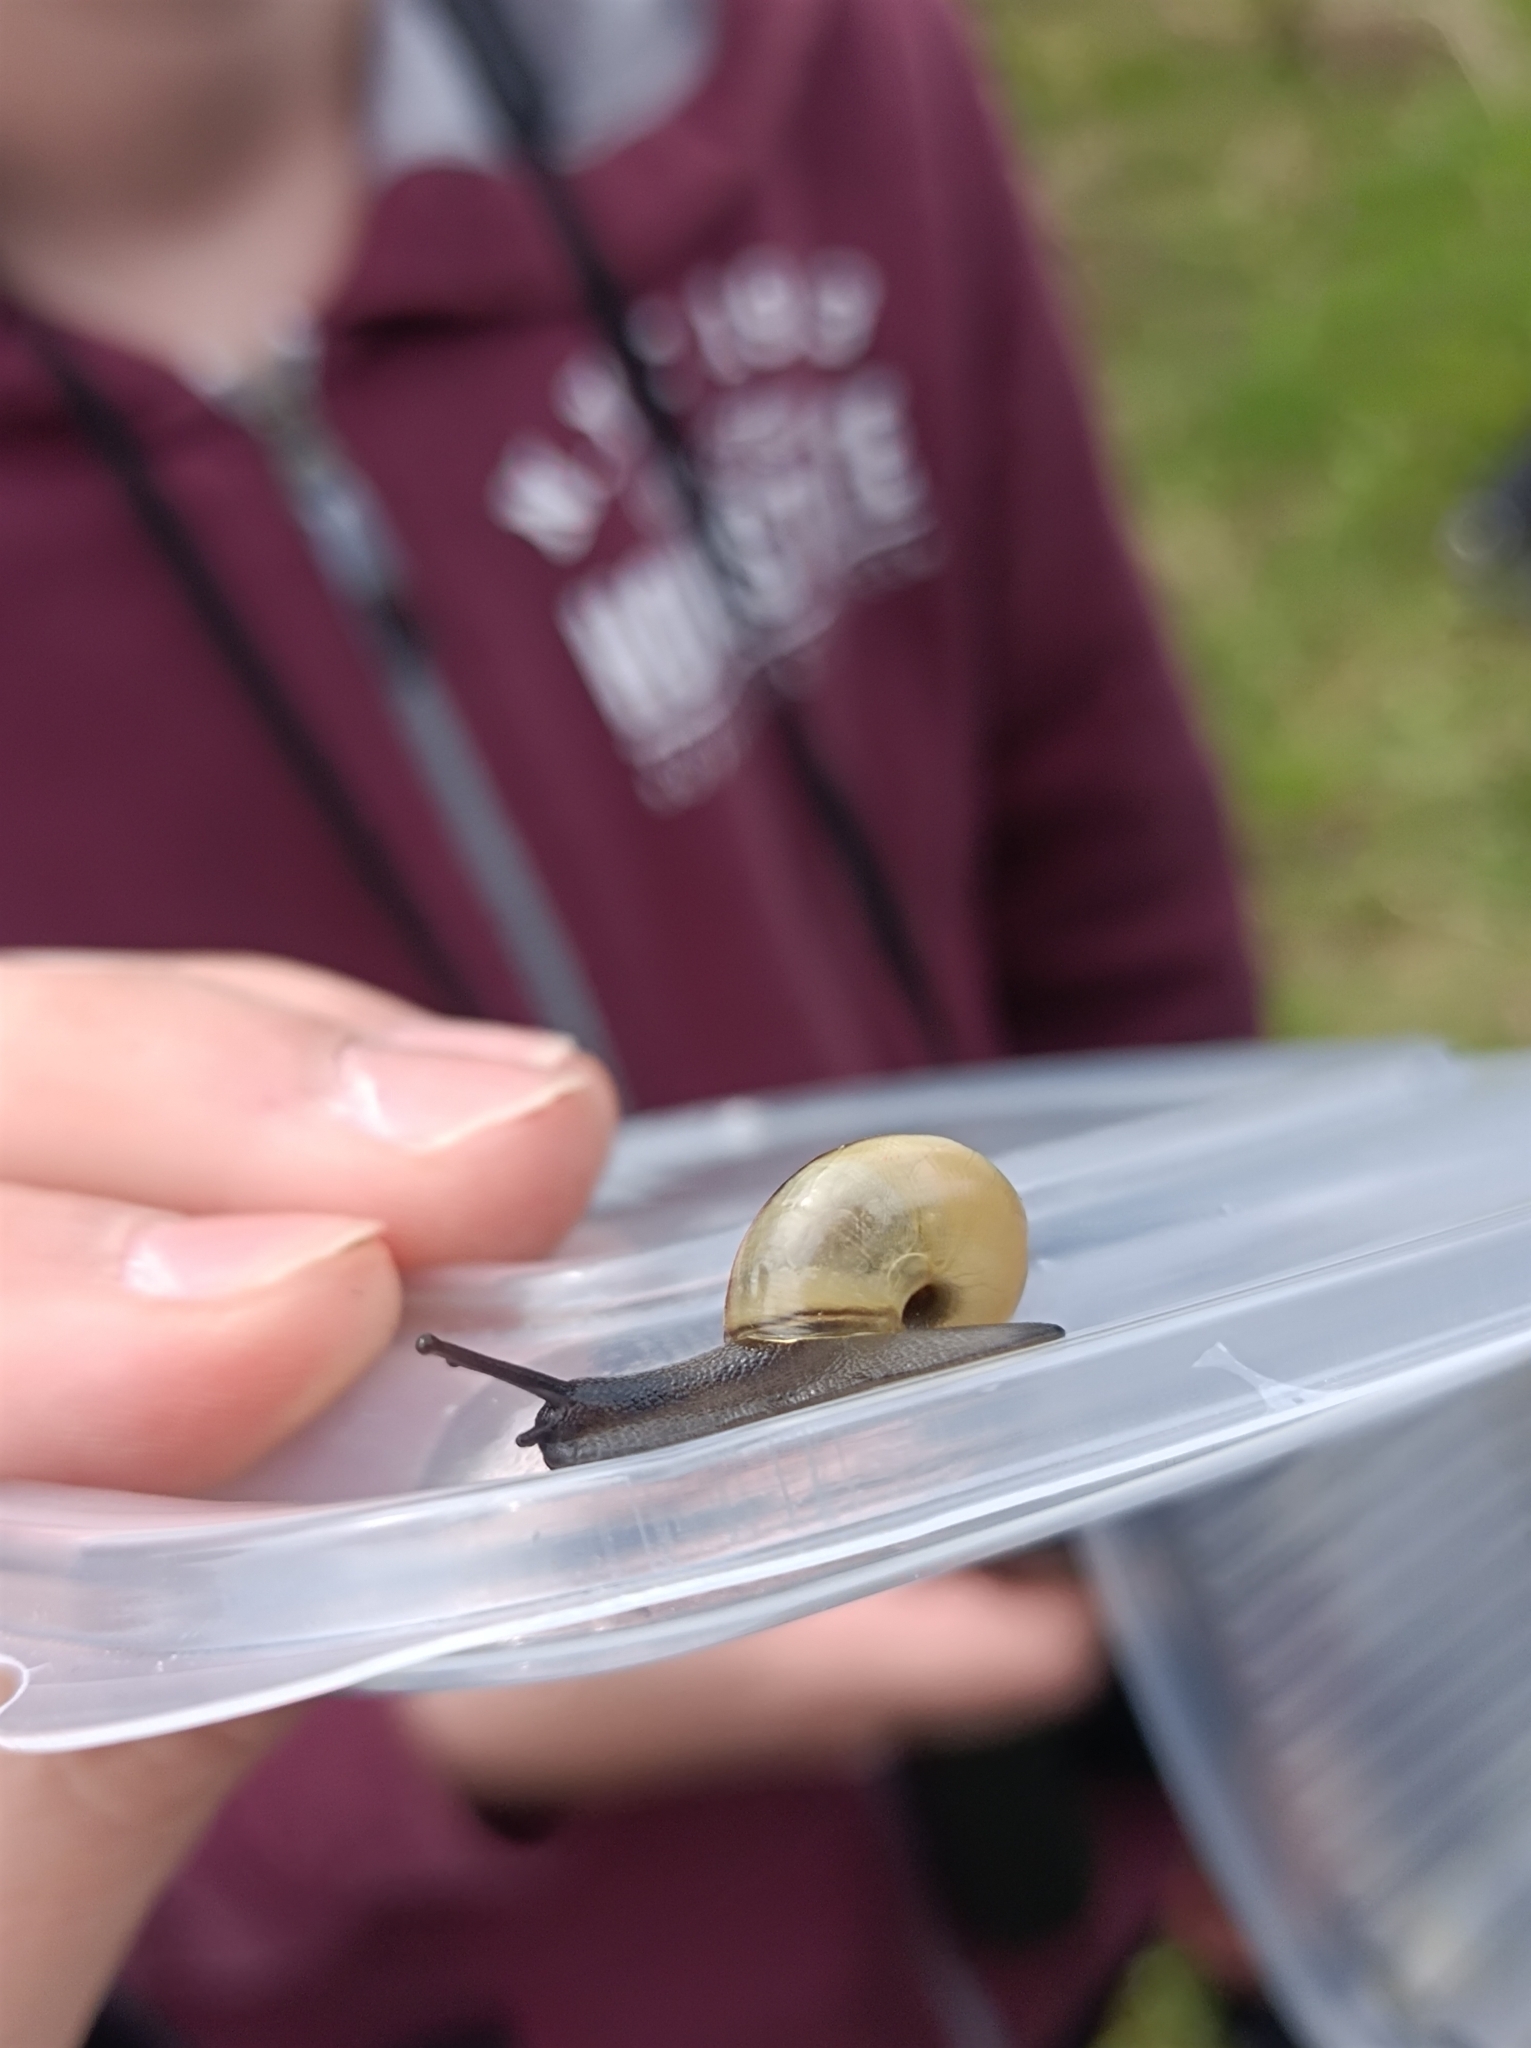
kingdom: Animalia
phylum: Mollusca
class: Gastropoda
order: Stylommatophora
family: Helicidae
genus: Faustina
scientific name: Faustina faustina
